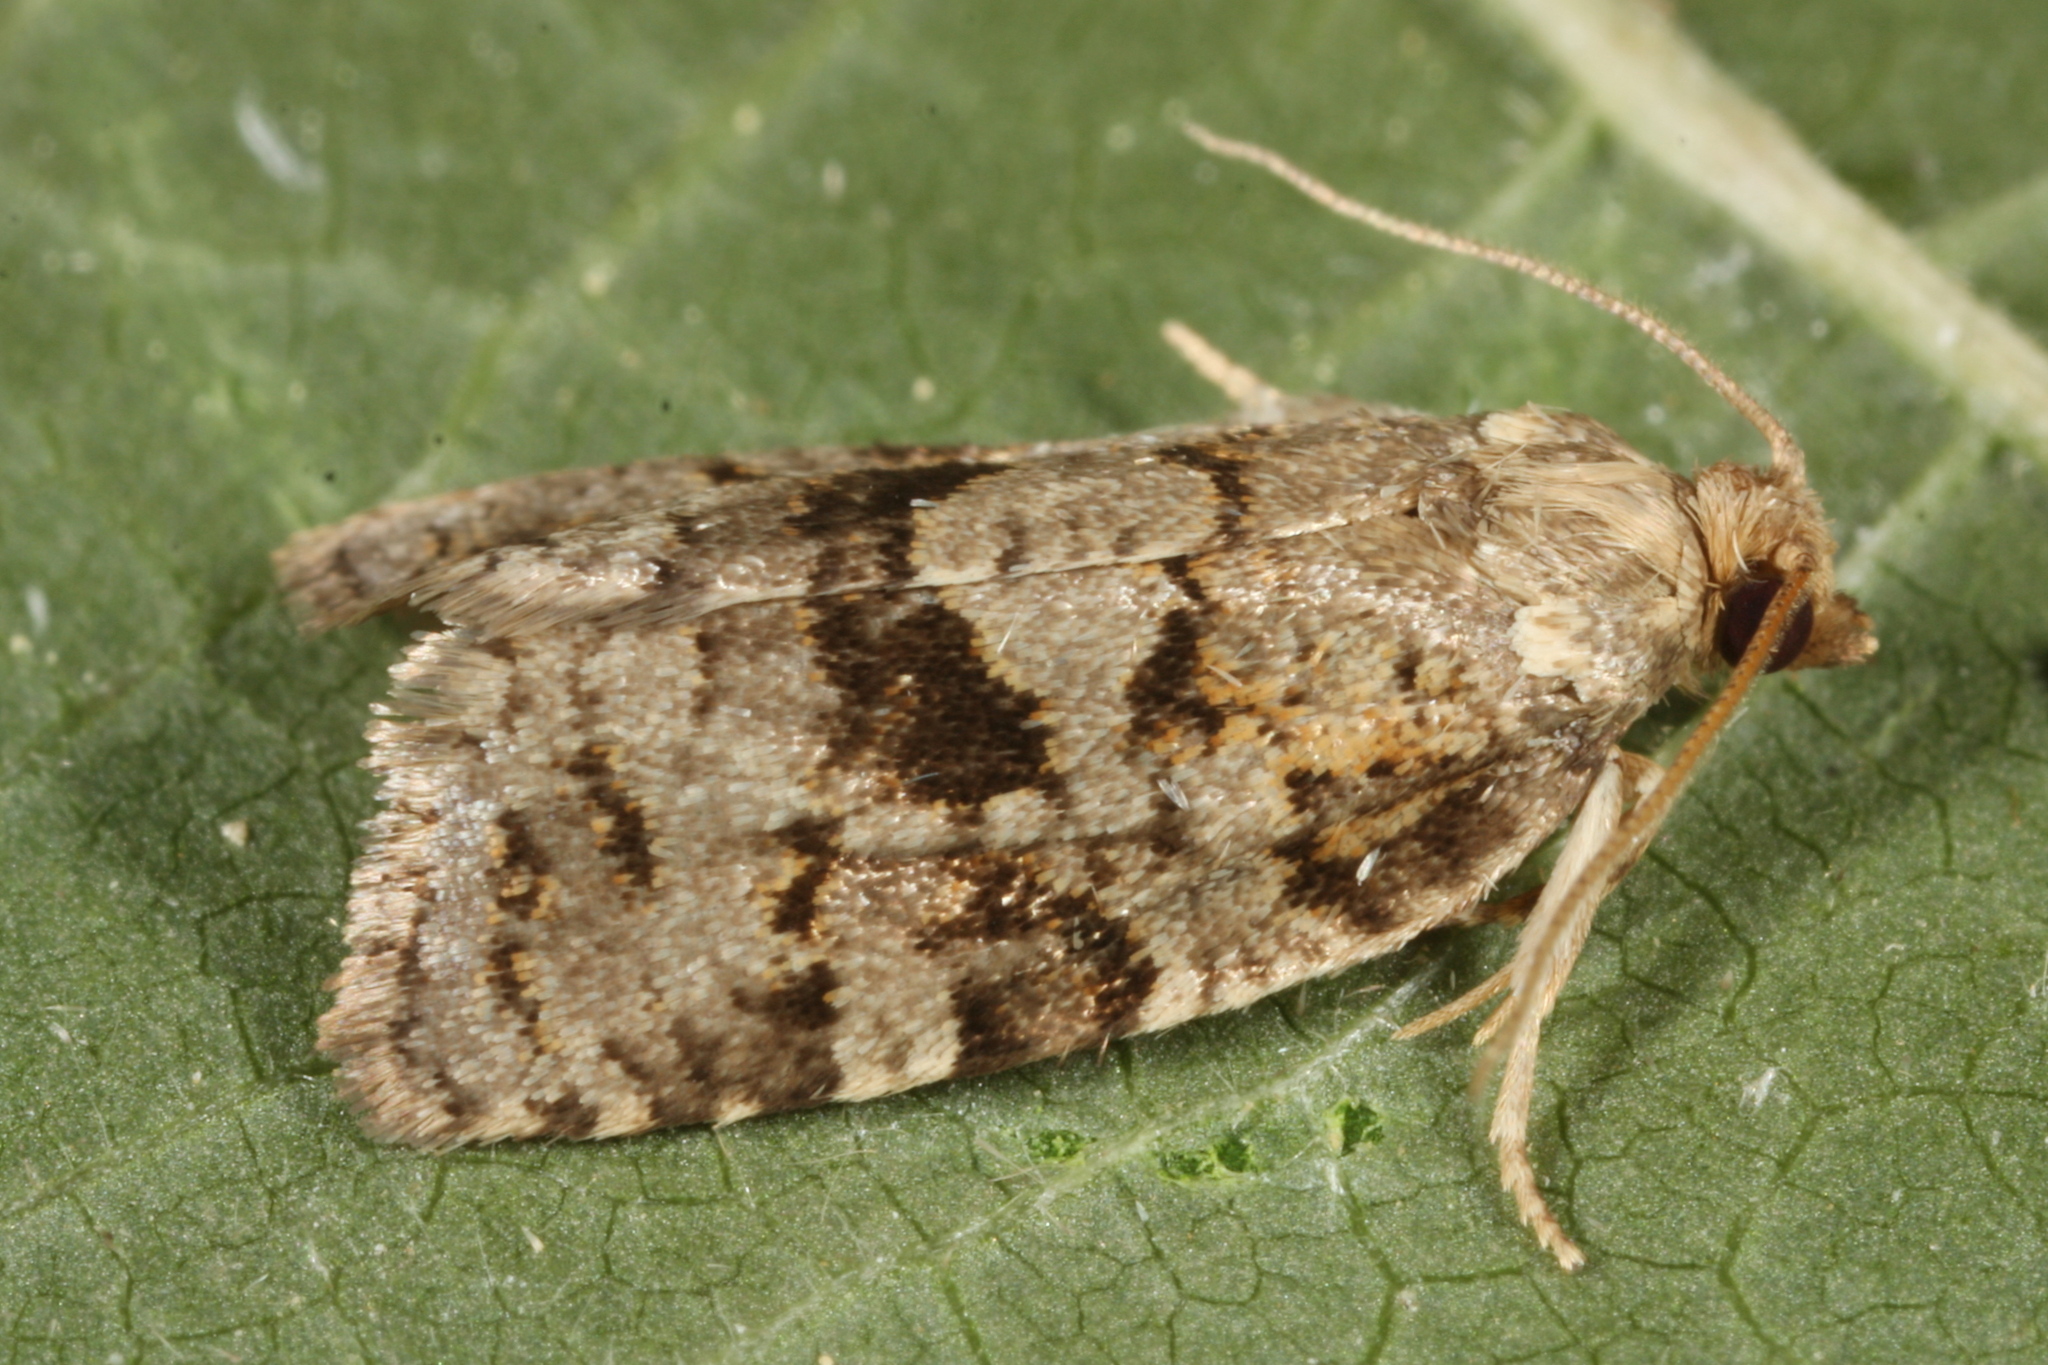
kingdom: Animalia
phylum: Arthropoda
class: Insecta
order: Lepidoptera
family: Tortricidae
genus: Dichelia
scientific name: Dichelia histrionana
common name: Tortricid moth
